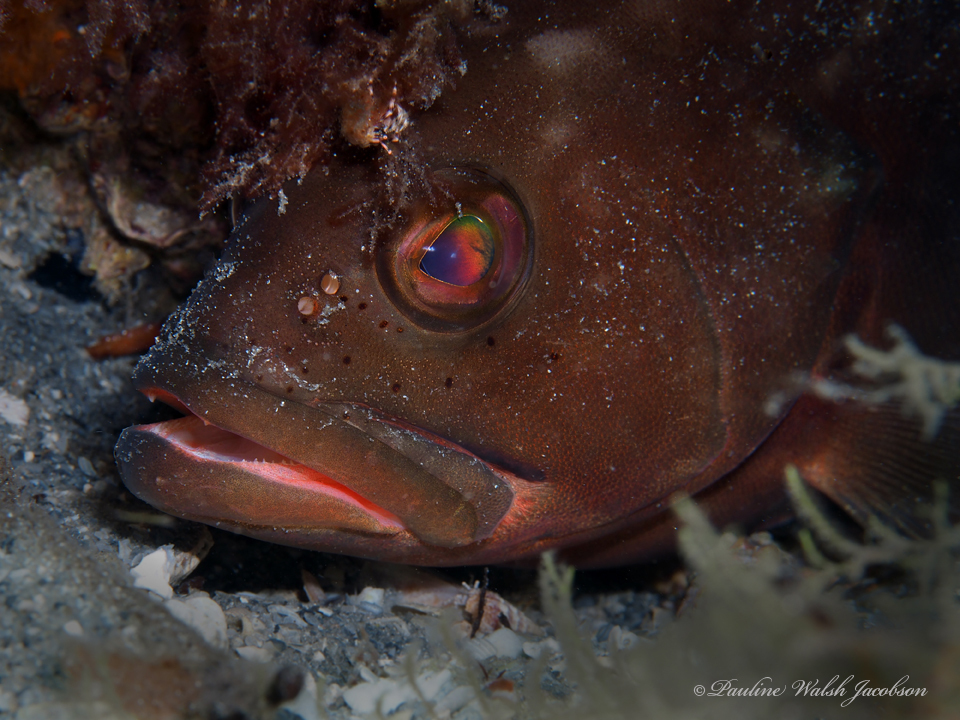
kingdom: Animalia
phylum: Chordata
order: Perciformes
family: Serranidae
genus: Epinephelus
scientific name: Epinephelus morio
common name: Red grouper
